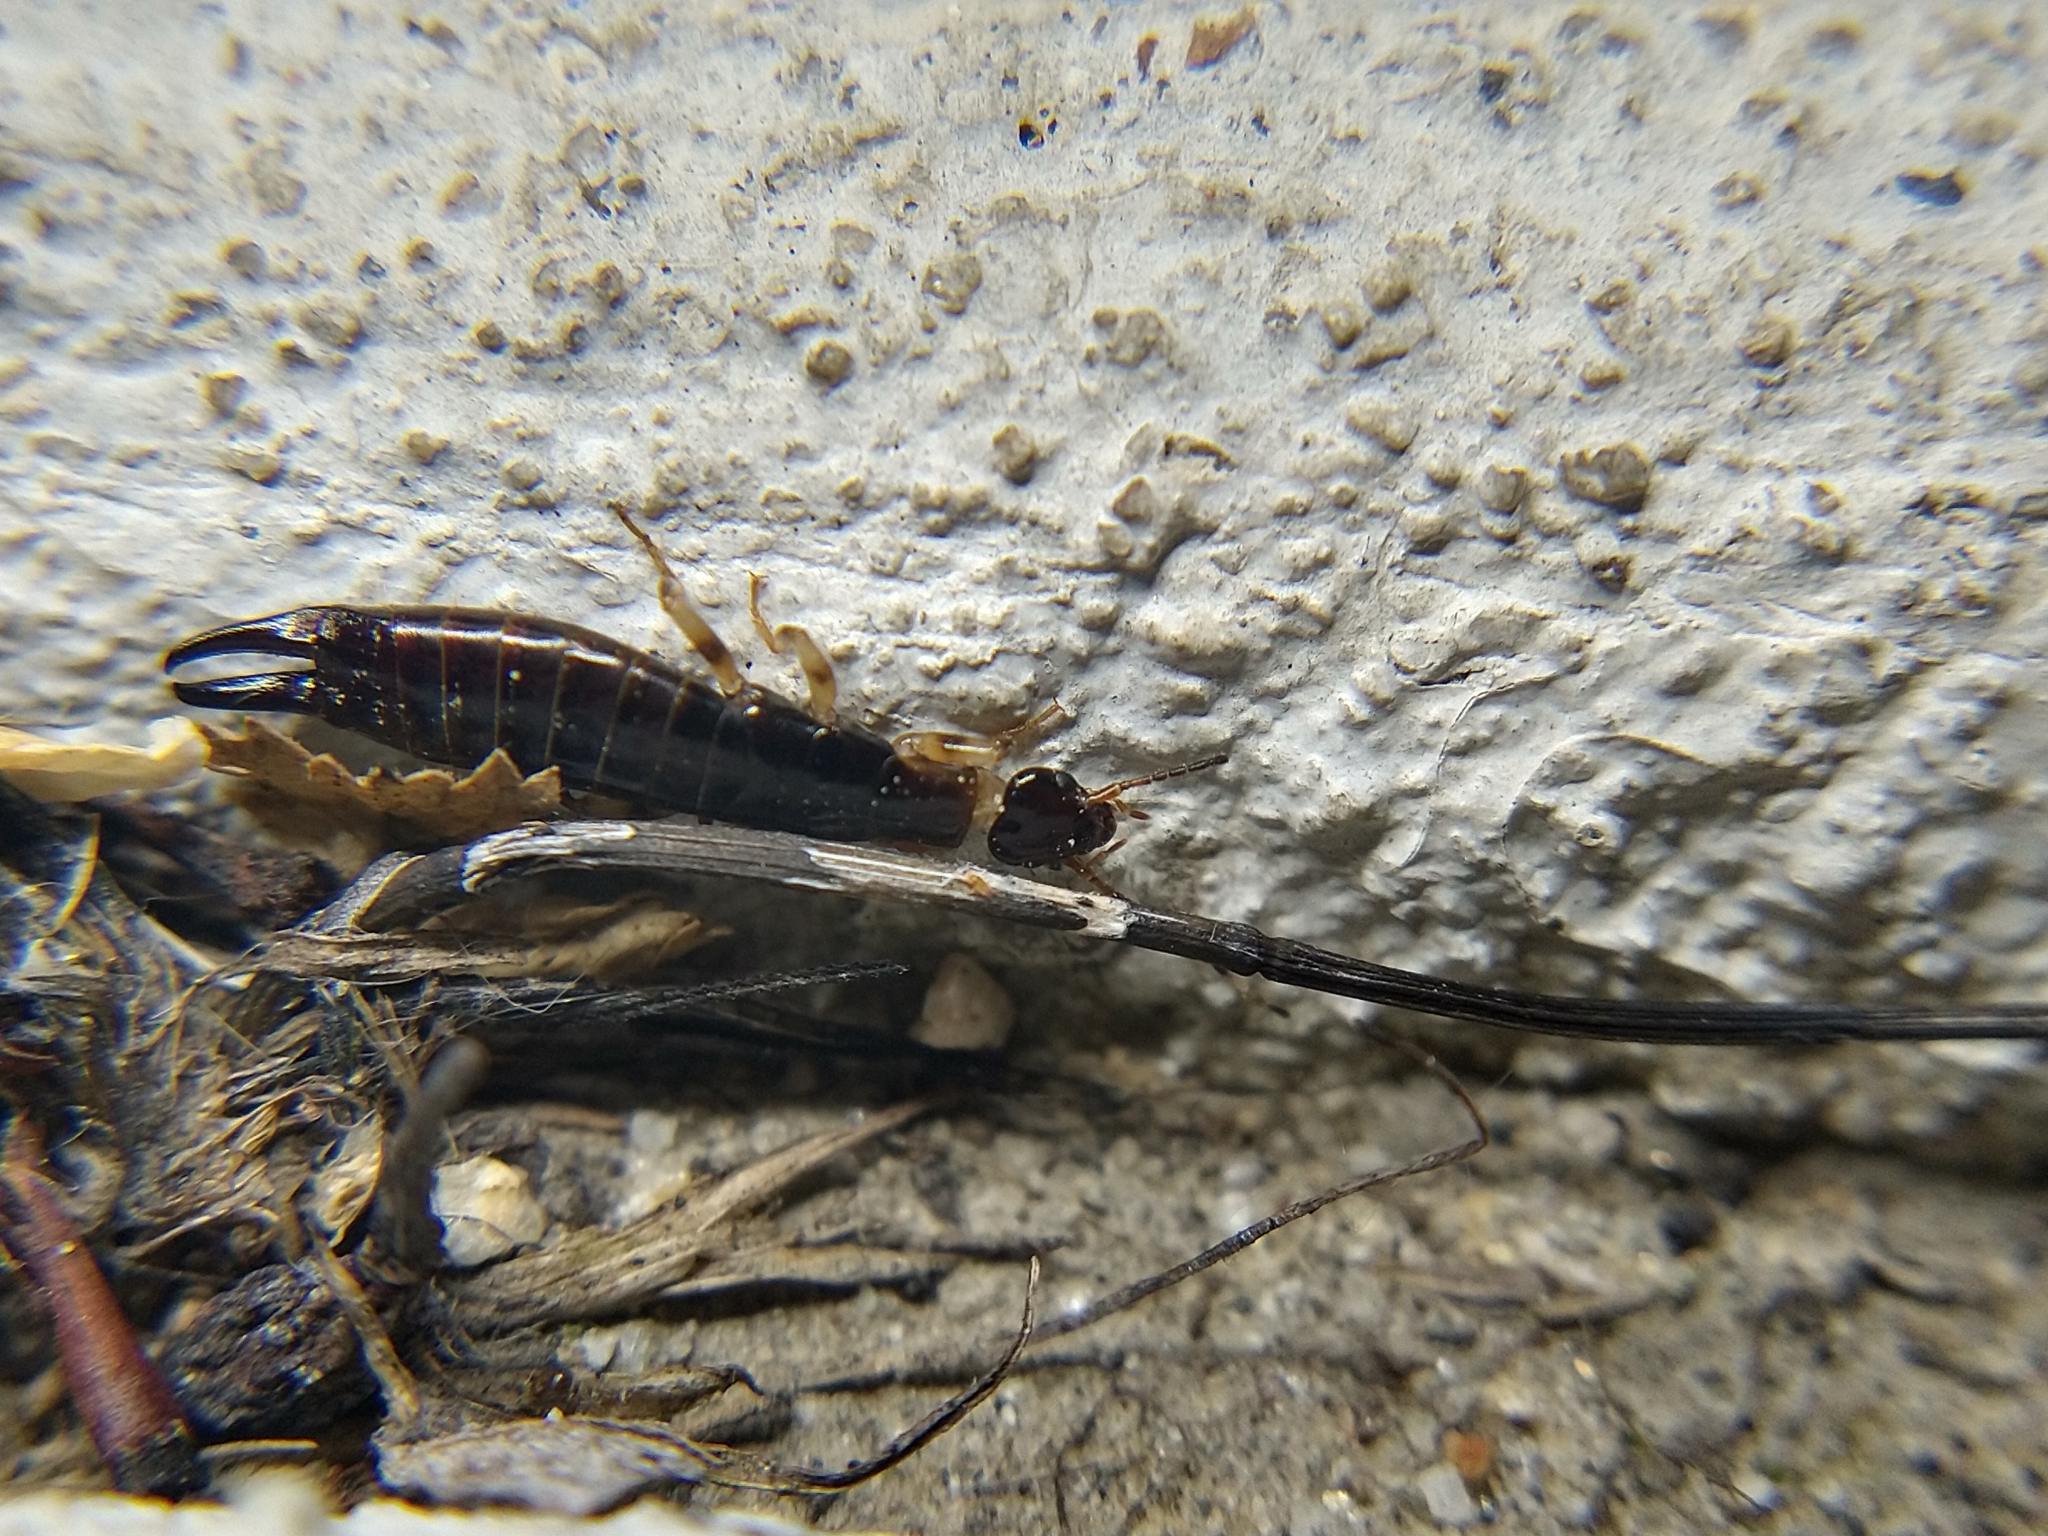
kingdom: Animalia
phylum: Arthropoda
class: Insecta
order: Dermaptera
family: Anisolabididae
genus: Euborellia
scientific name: Euborellia annulipes
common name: Ringlegged earwig
